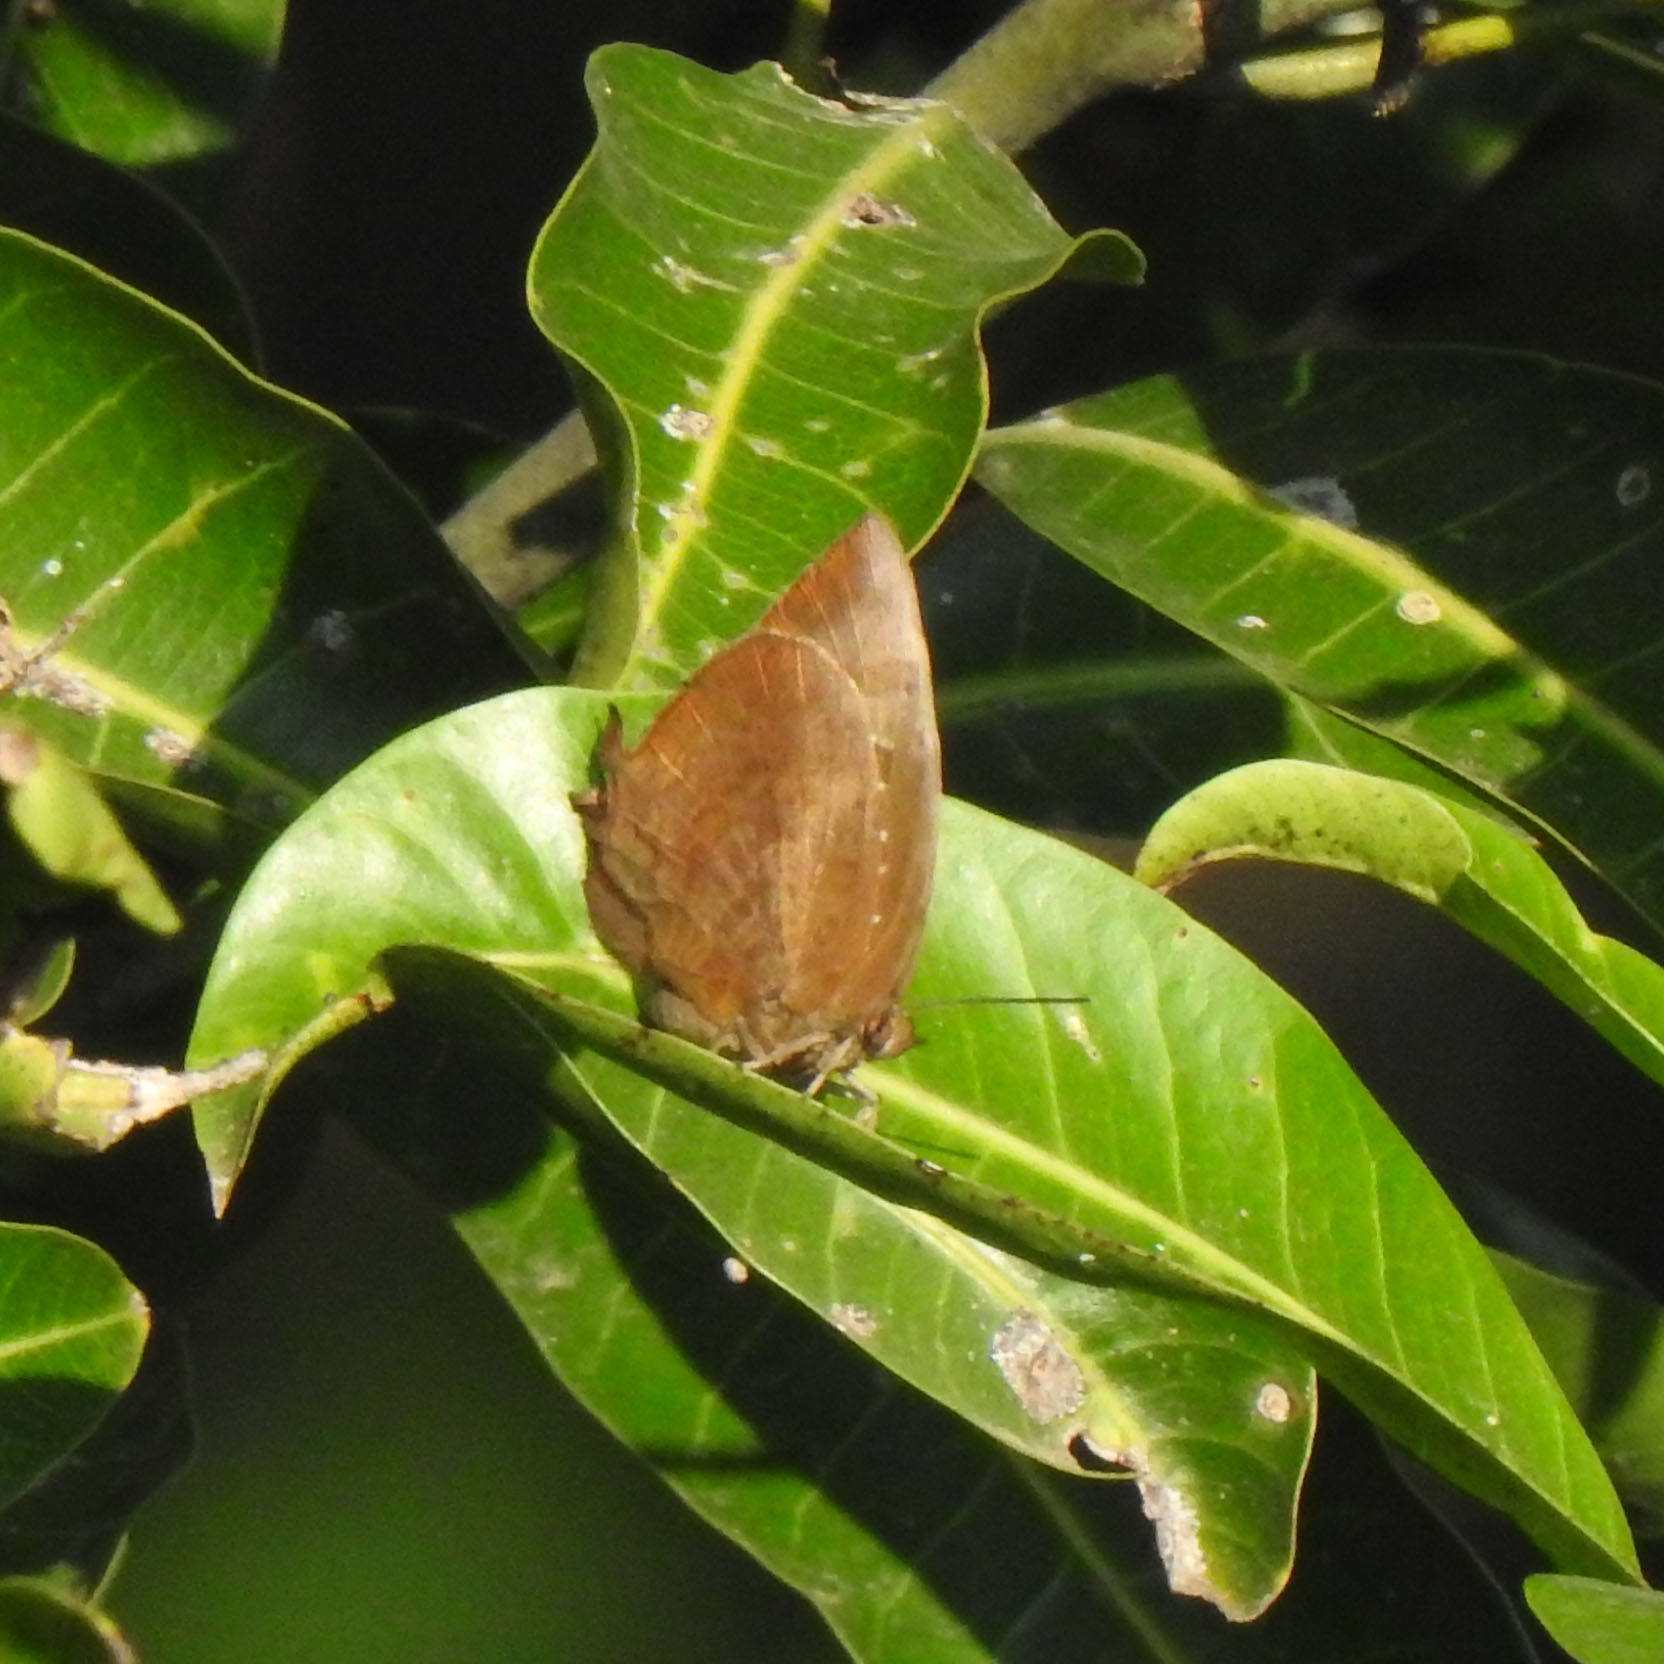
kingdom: Animalia
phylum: Arthropoda
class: Insecta
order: Lepidoptera
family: Lycaenidae
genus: Arhopala
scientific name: Arhopala centaurus
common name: Dull oak-blue
